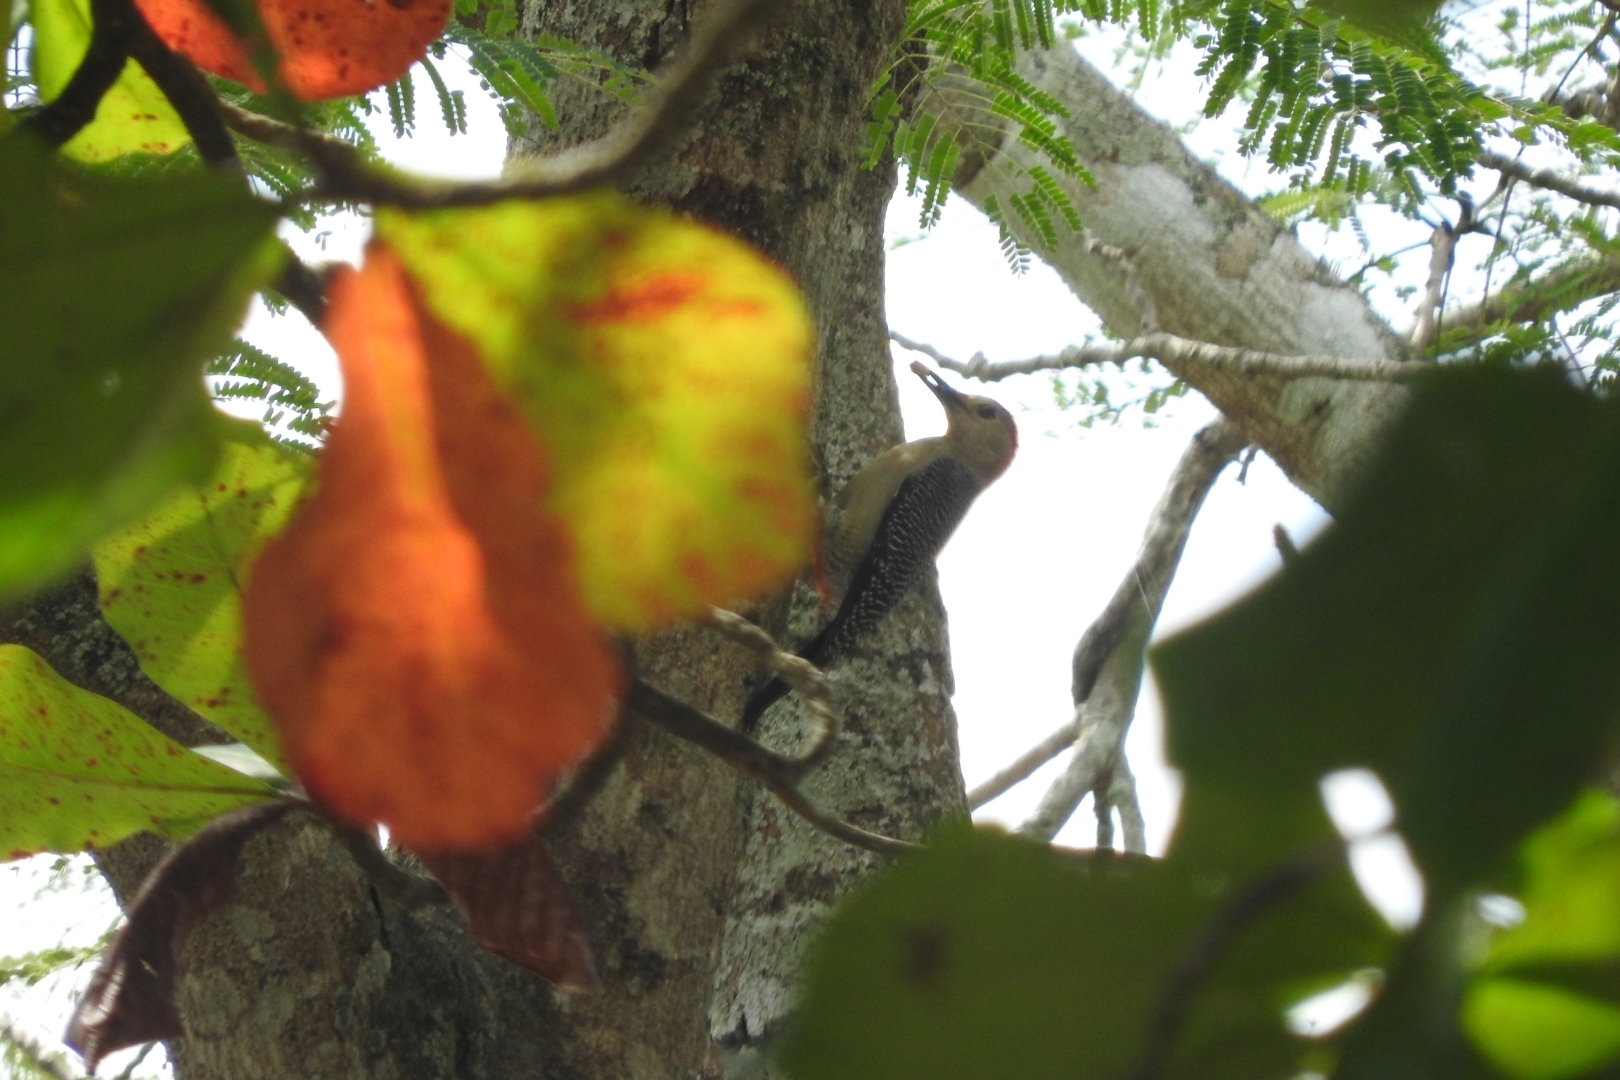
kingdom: Animalia
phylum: Chordata
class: Aves
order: Piciformes
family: Picidae
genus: Melanerpes
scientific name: Melanerpes aurifrons
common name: Golden-fronted woodpecker
